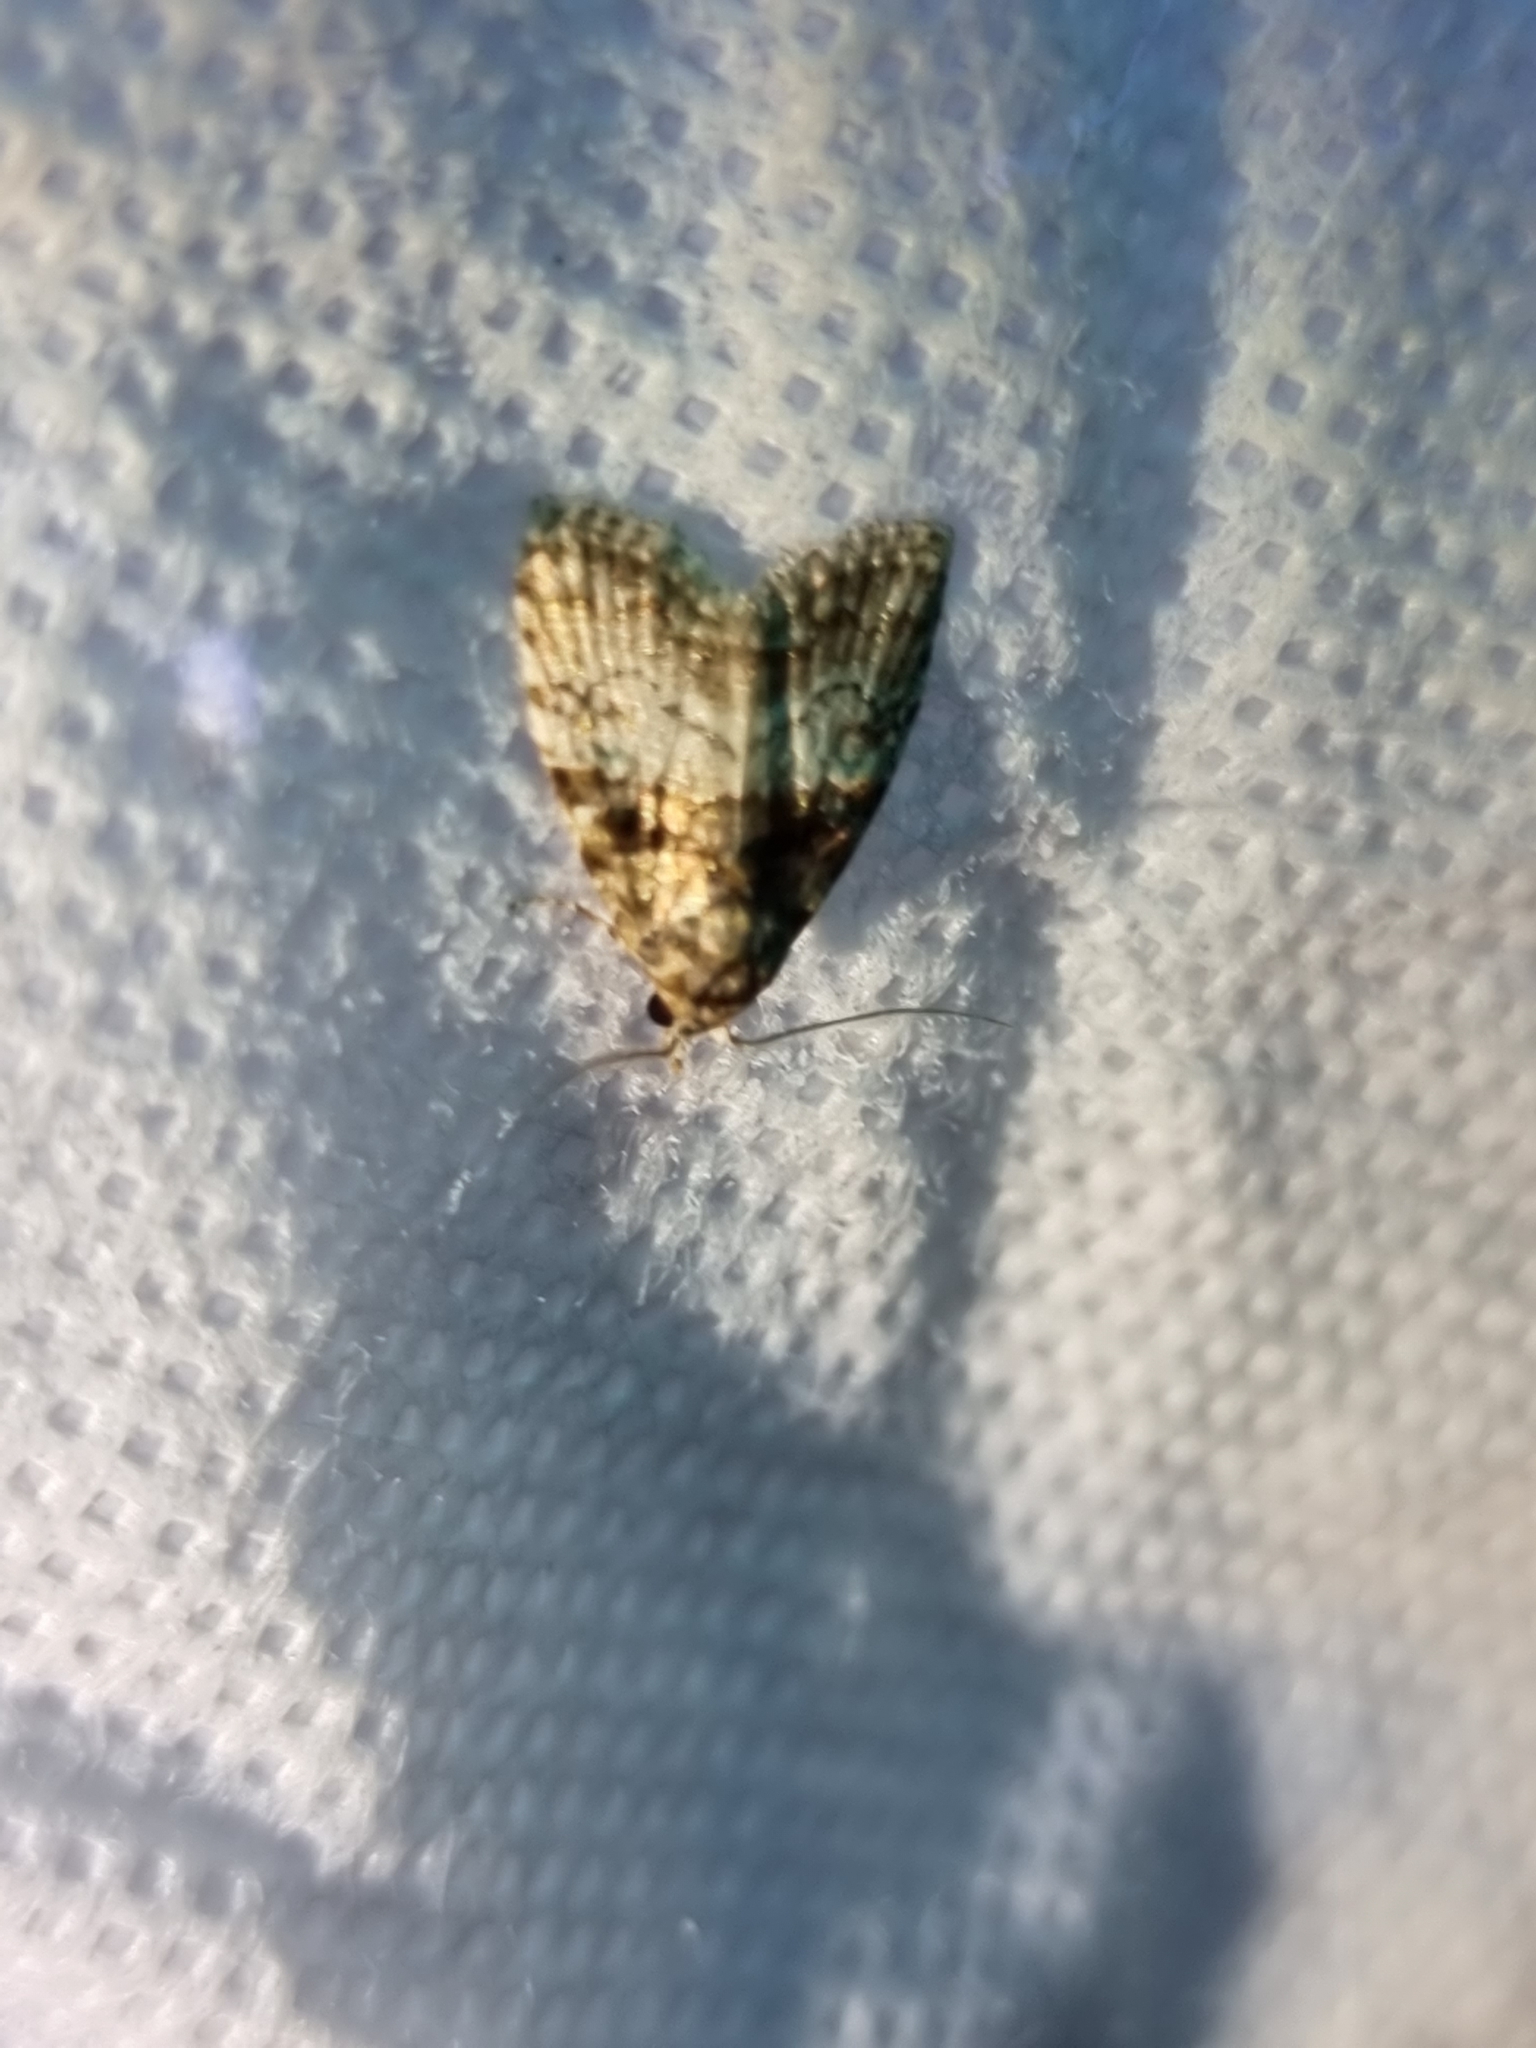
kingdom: Animalia
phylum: Arthropoda
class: Insecta
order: Lepidoptera
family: Nolidae
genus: Nola
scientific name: Nola Pisara hyalospila
